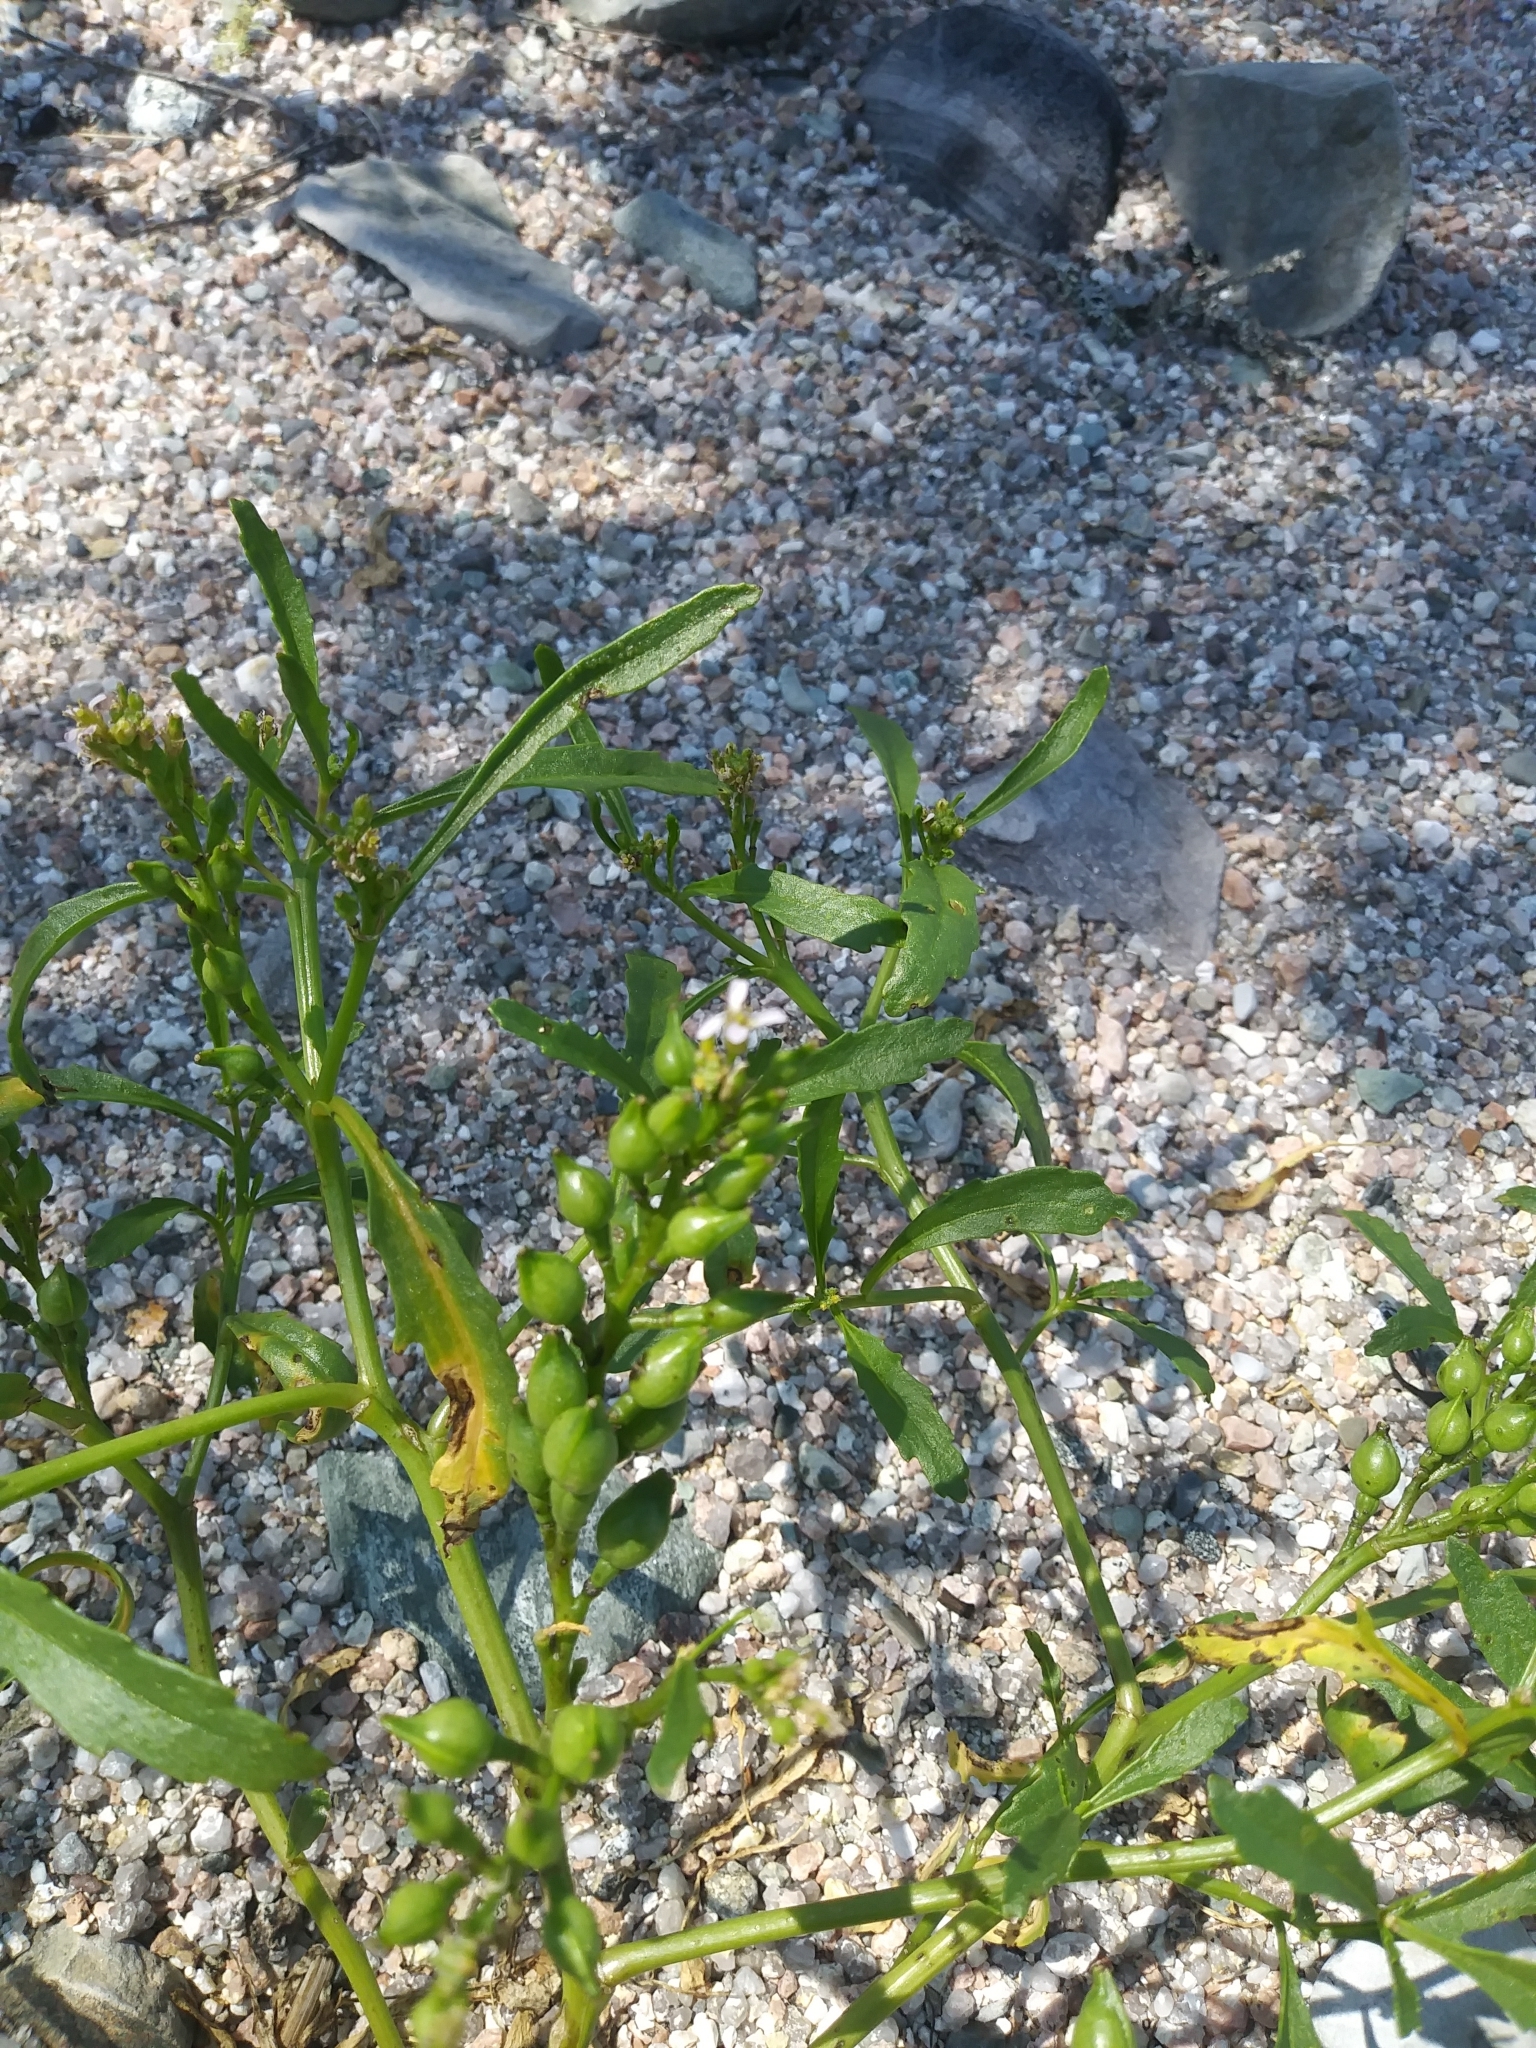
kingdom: Plantae
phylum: Tracheophyta
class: Magnoliopsida
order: Brassicales
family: Brassicaceae
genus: Cakile
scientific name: Cakile edentula
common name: American sea rocket
